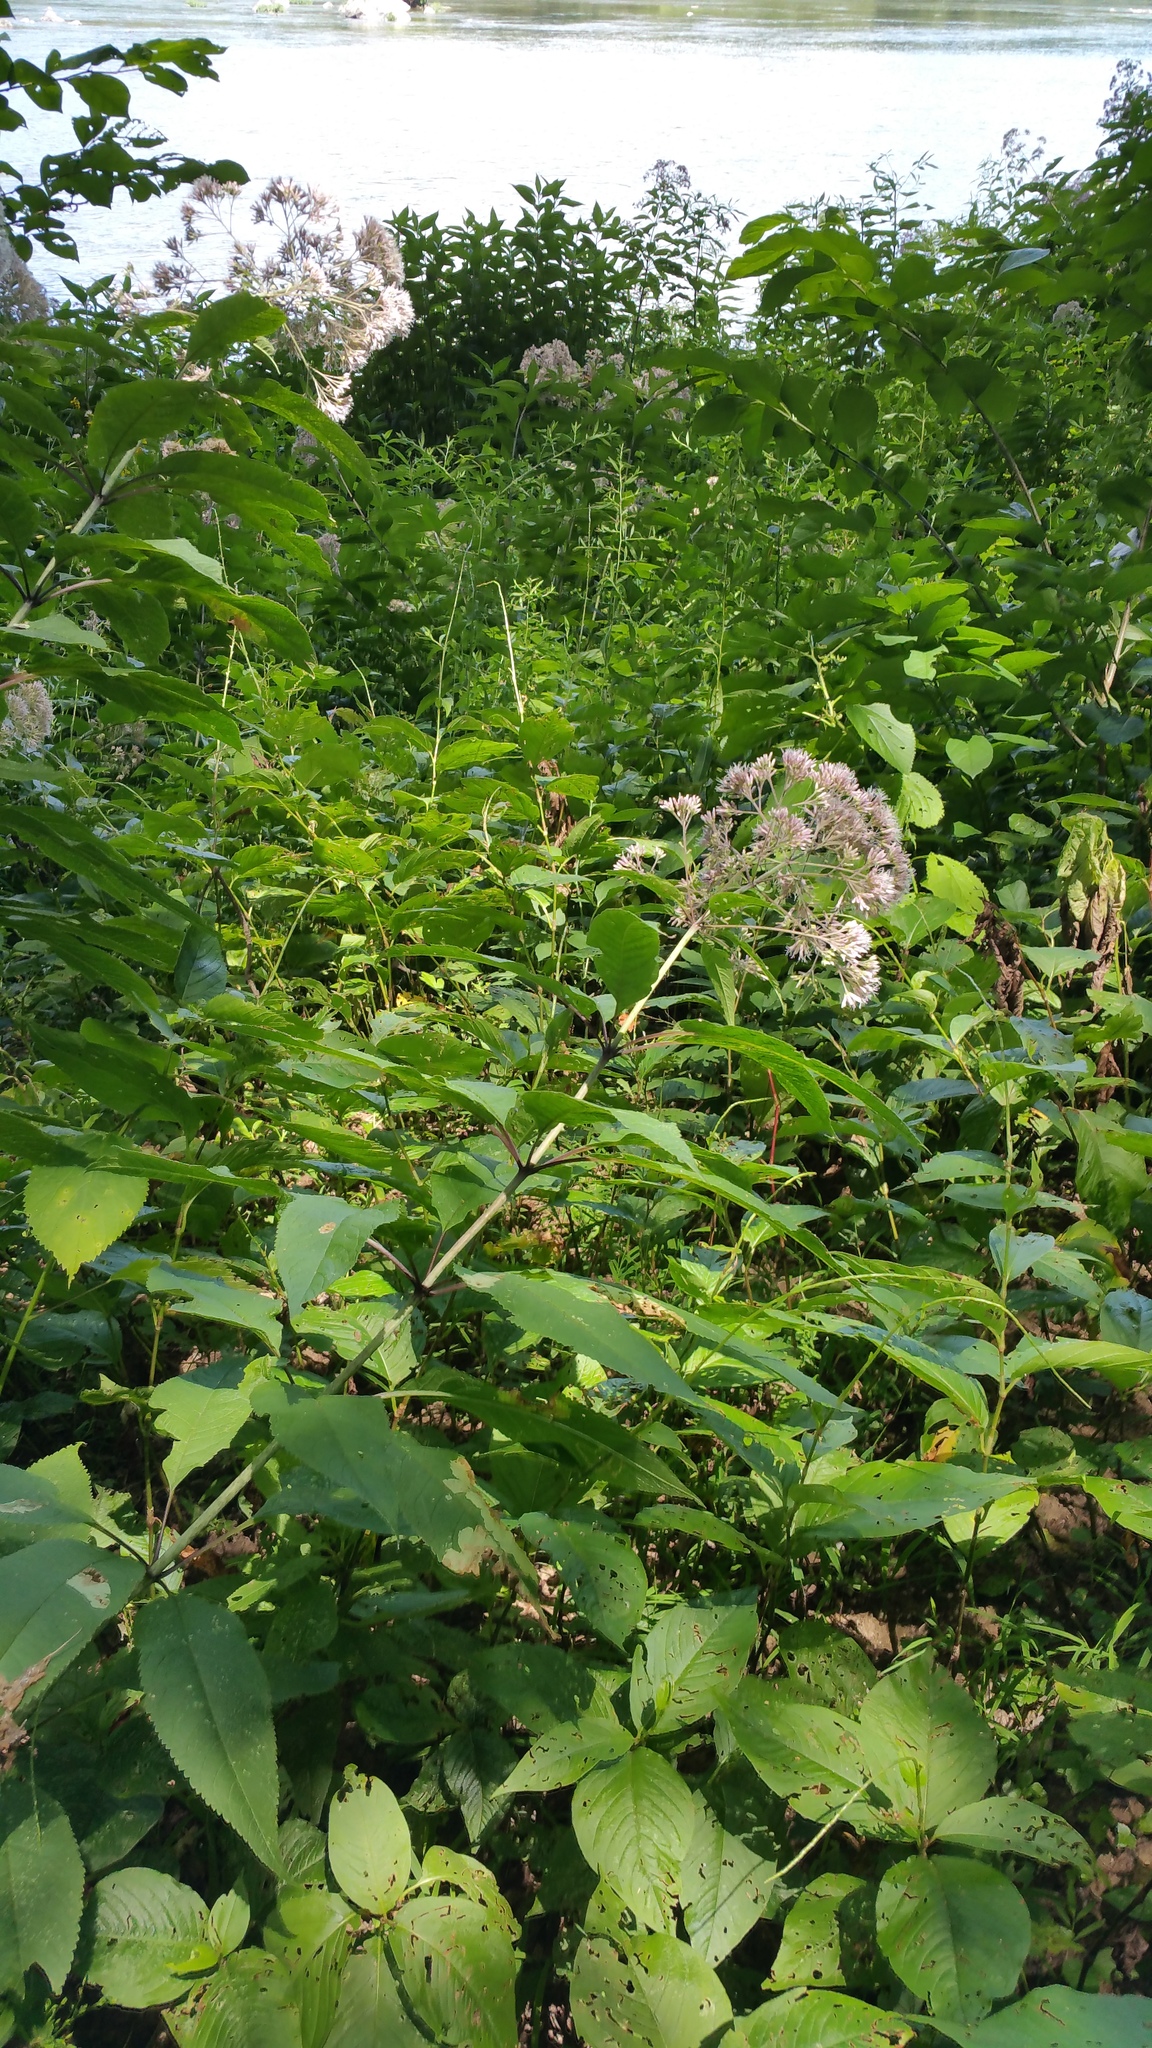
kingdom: Plantae
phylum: Tracheophyta
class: Magnoliopsida
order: Asterales
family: Asteraceae
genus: Eutrochium
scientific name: Eutrochium purpureum
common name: Gravelroot
